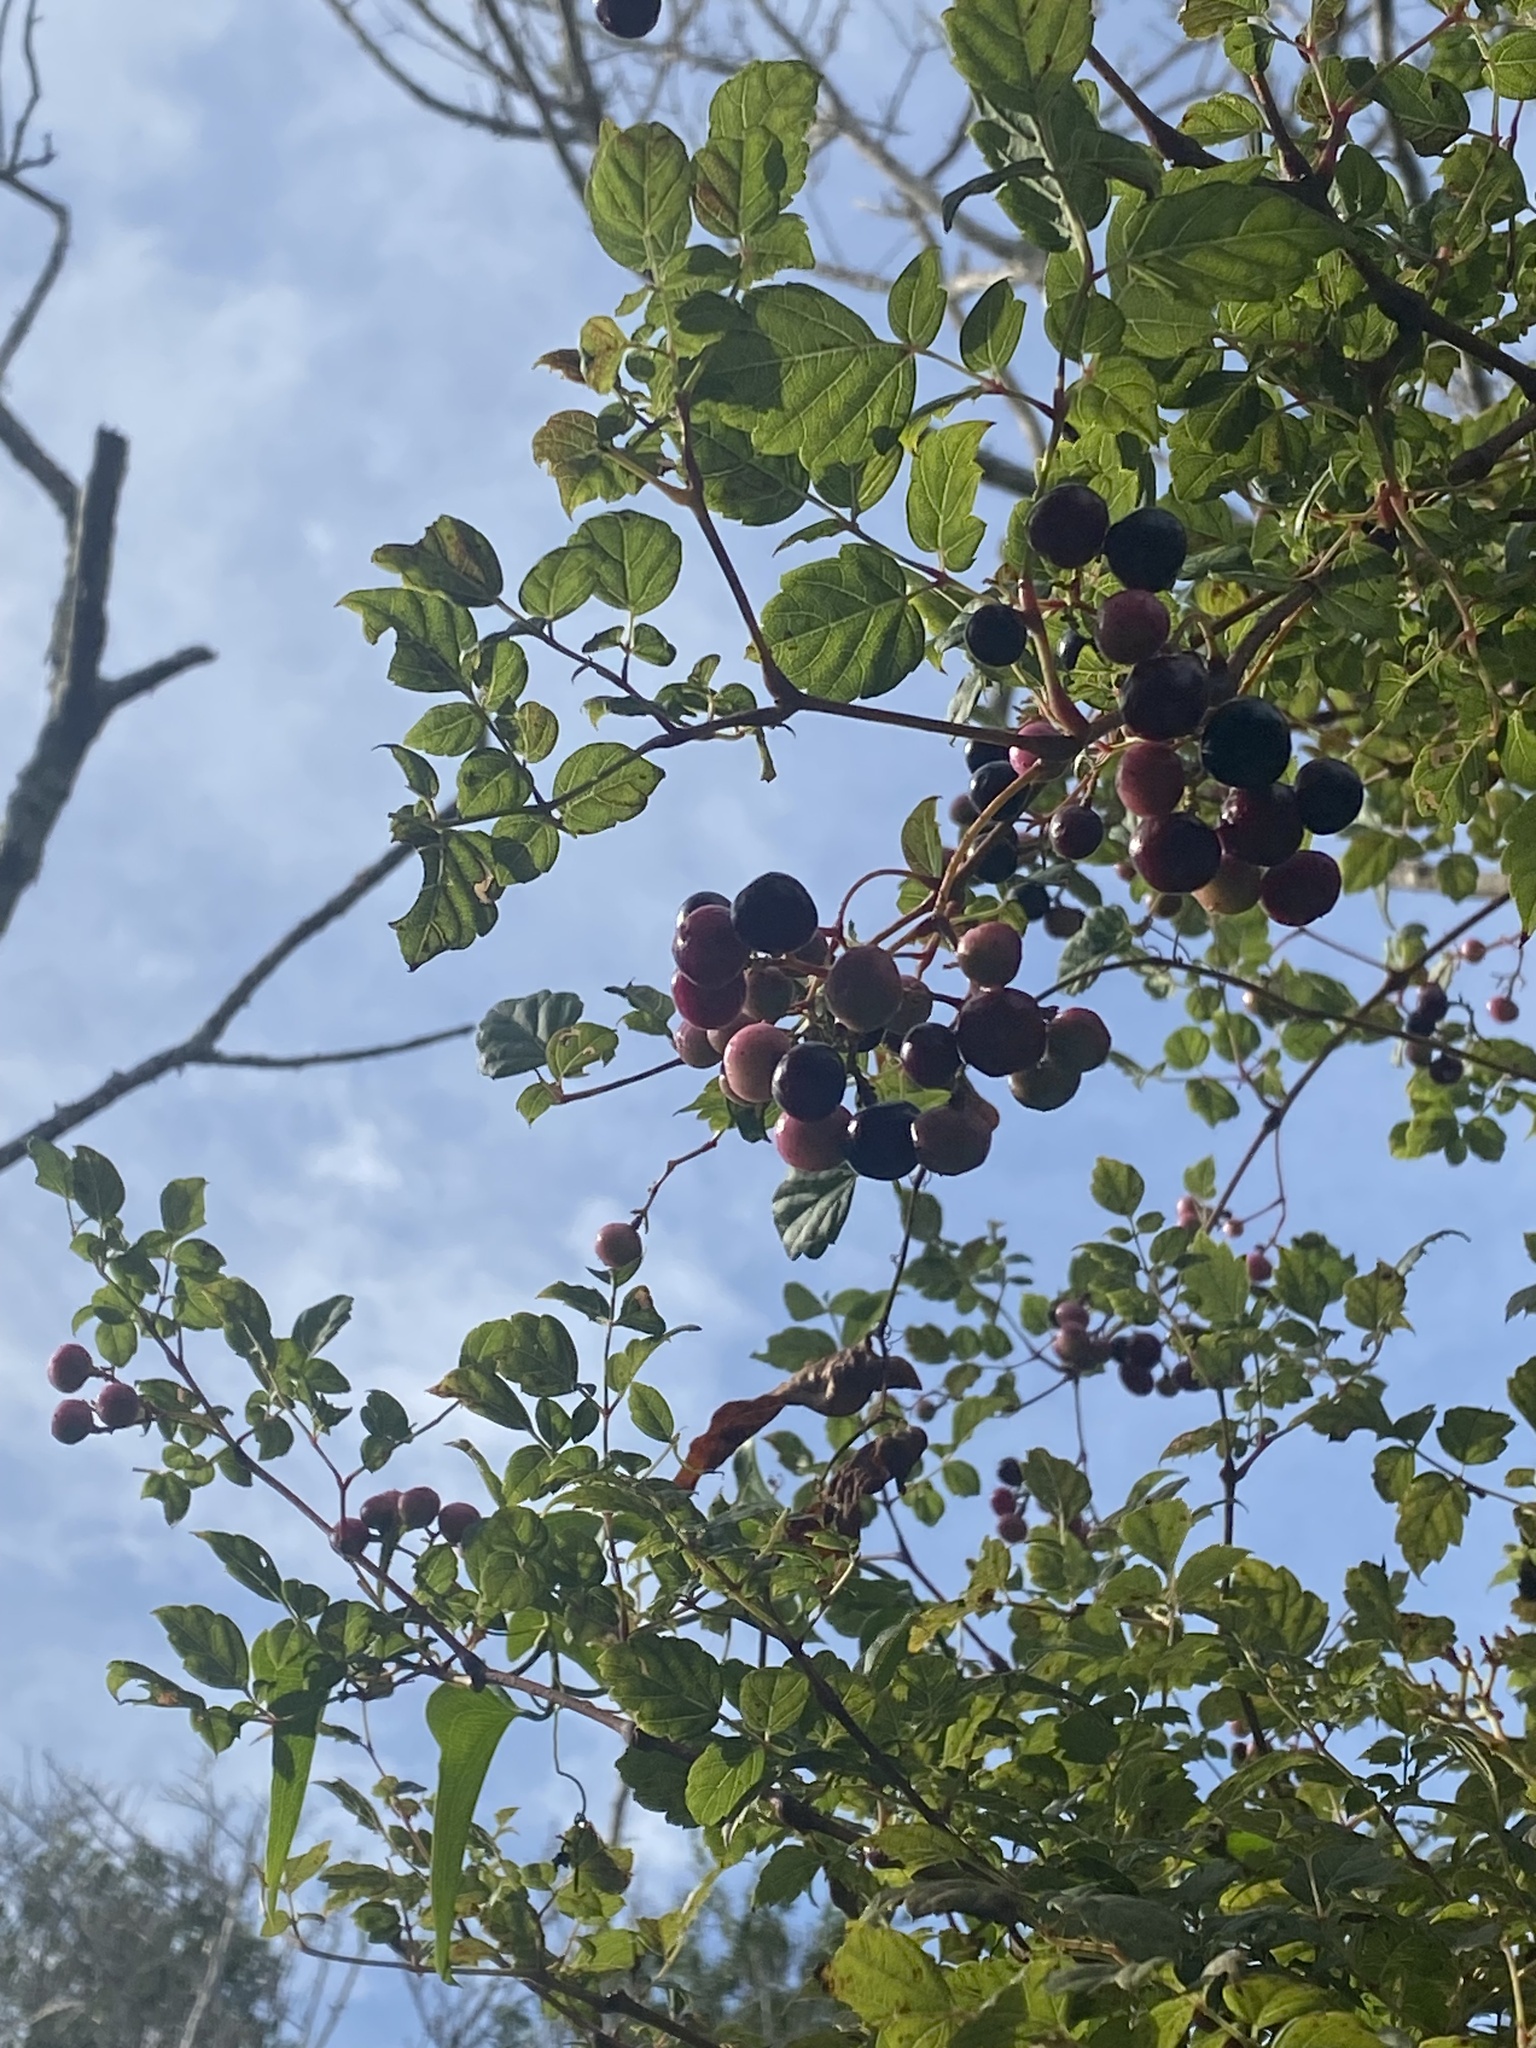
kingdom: Plantae
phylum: Tracheophyta
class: Magnoliopsida
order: Vitales
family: Vitaceae
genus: Nekemias
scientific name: Nekemias arborea
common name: Peppervine
